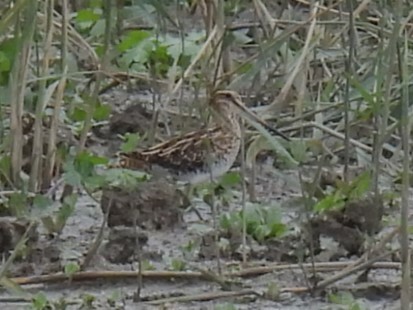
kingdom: Animalia
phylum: Chordata
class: Aves
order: Charadriiformes
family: Scolopacidae
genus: Gallinago
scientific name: Gallinago gallinago
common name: Common snipe
